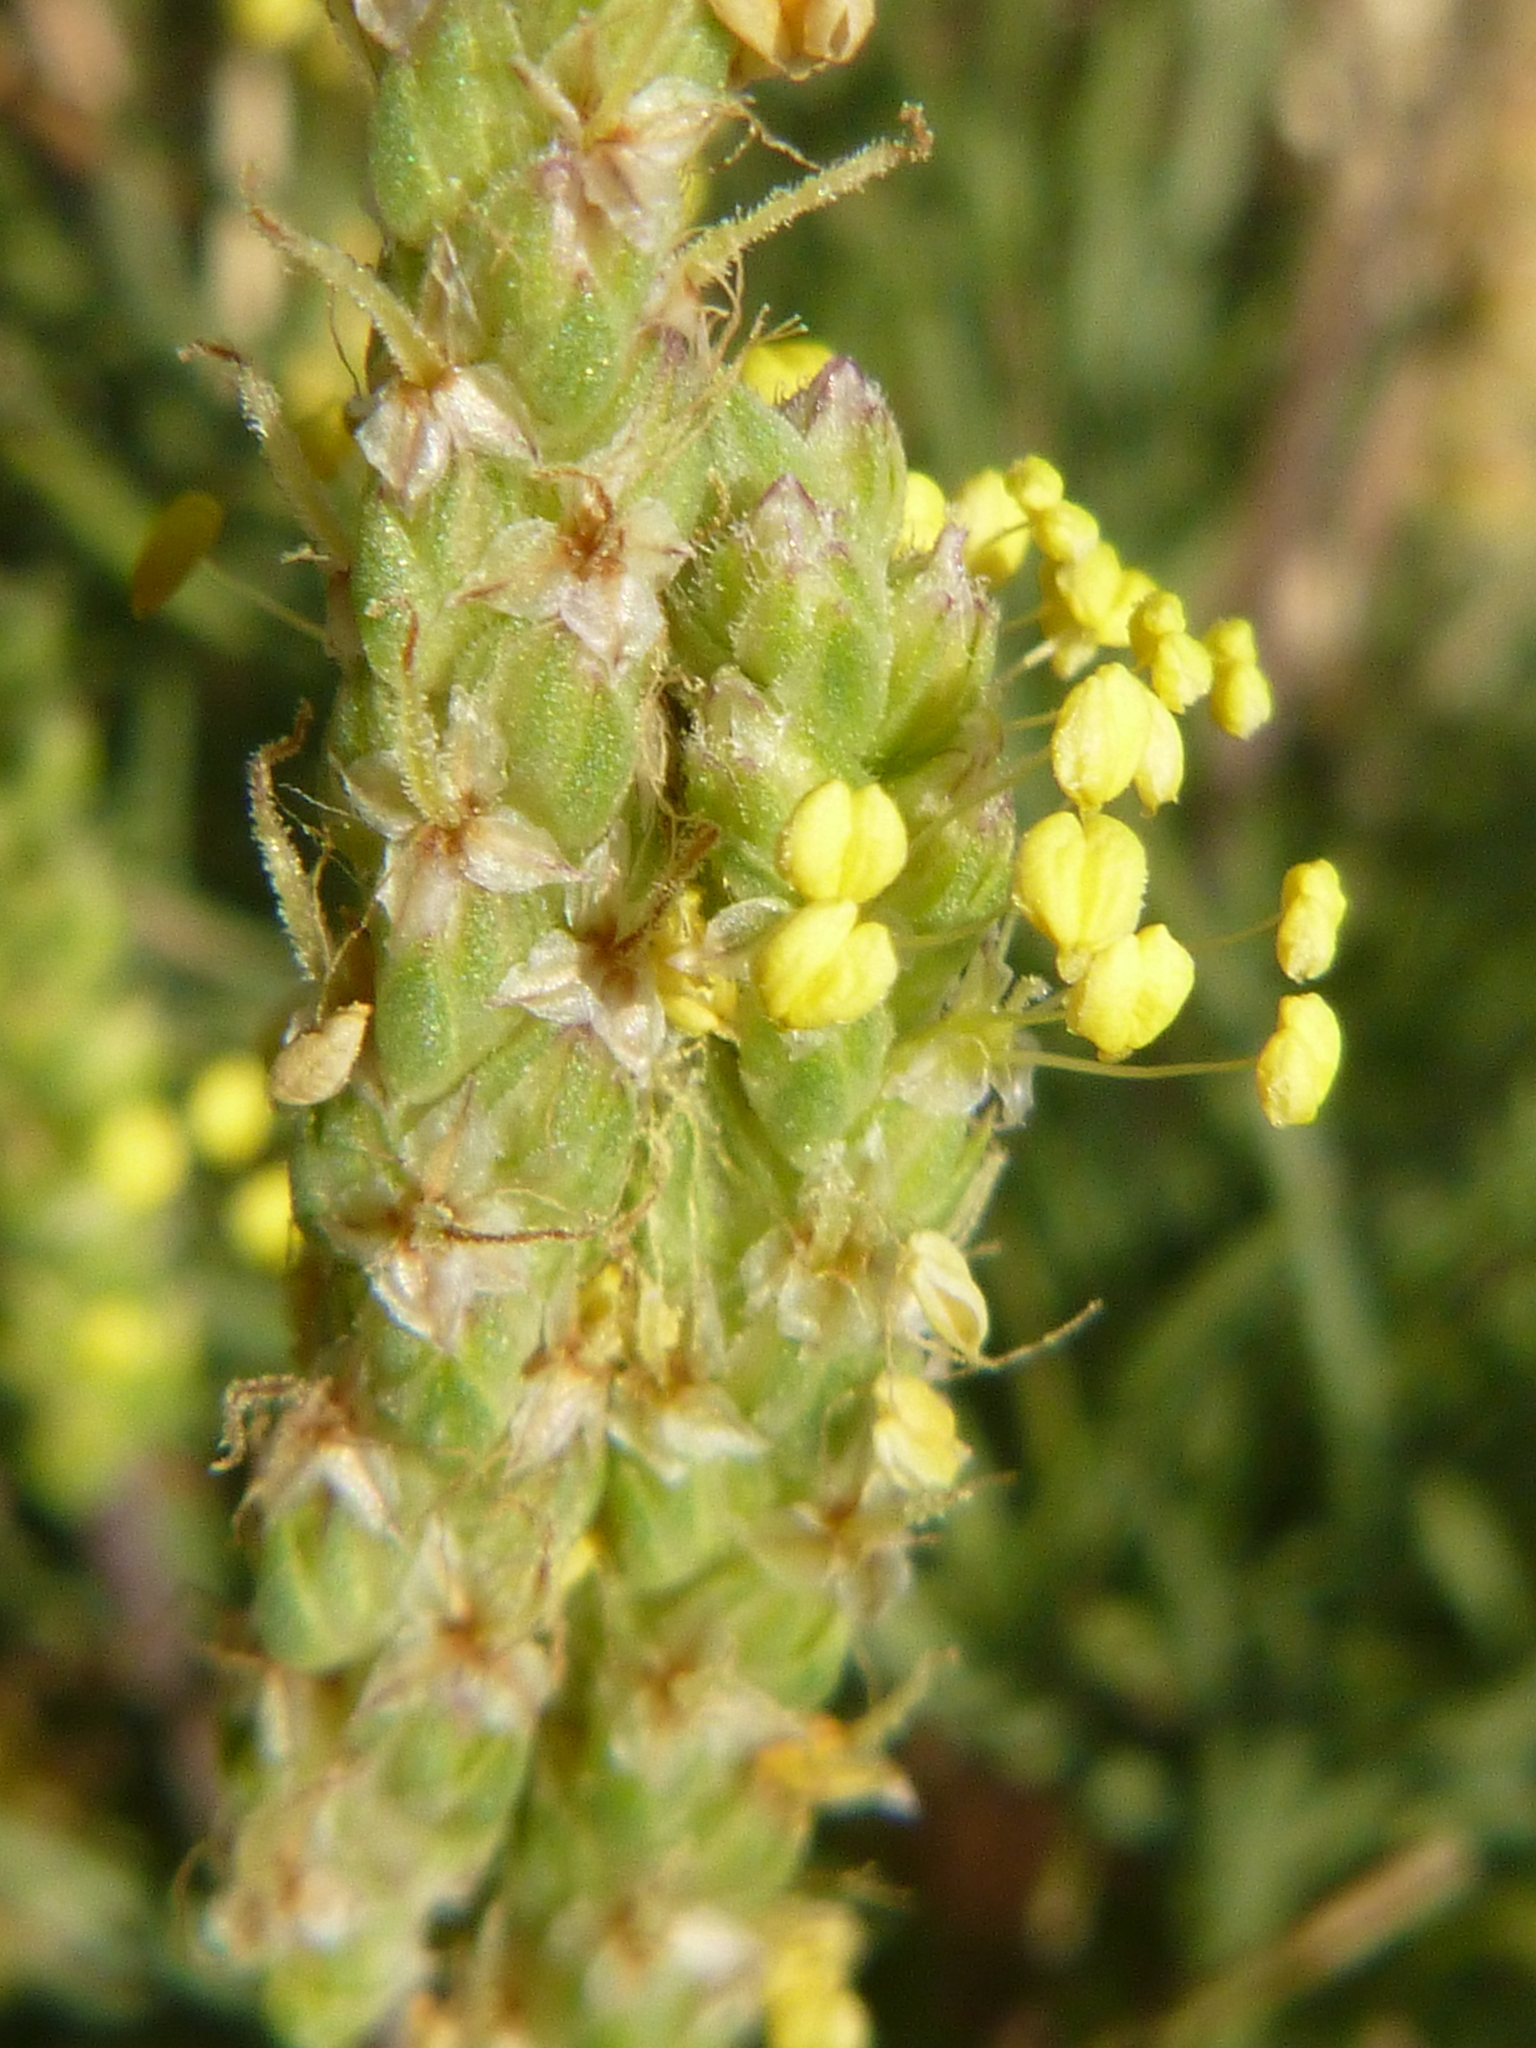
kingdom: Plantae
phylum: Tracheophyta
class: Magnoliopsida
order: Lamiales
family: Plantaginaceae
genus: Plantago
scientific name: Plantago
